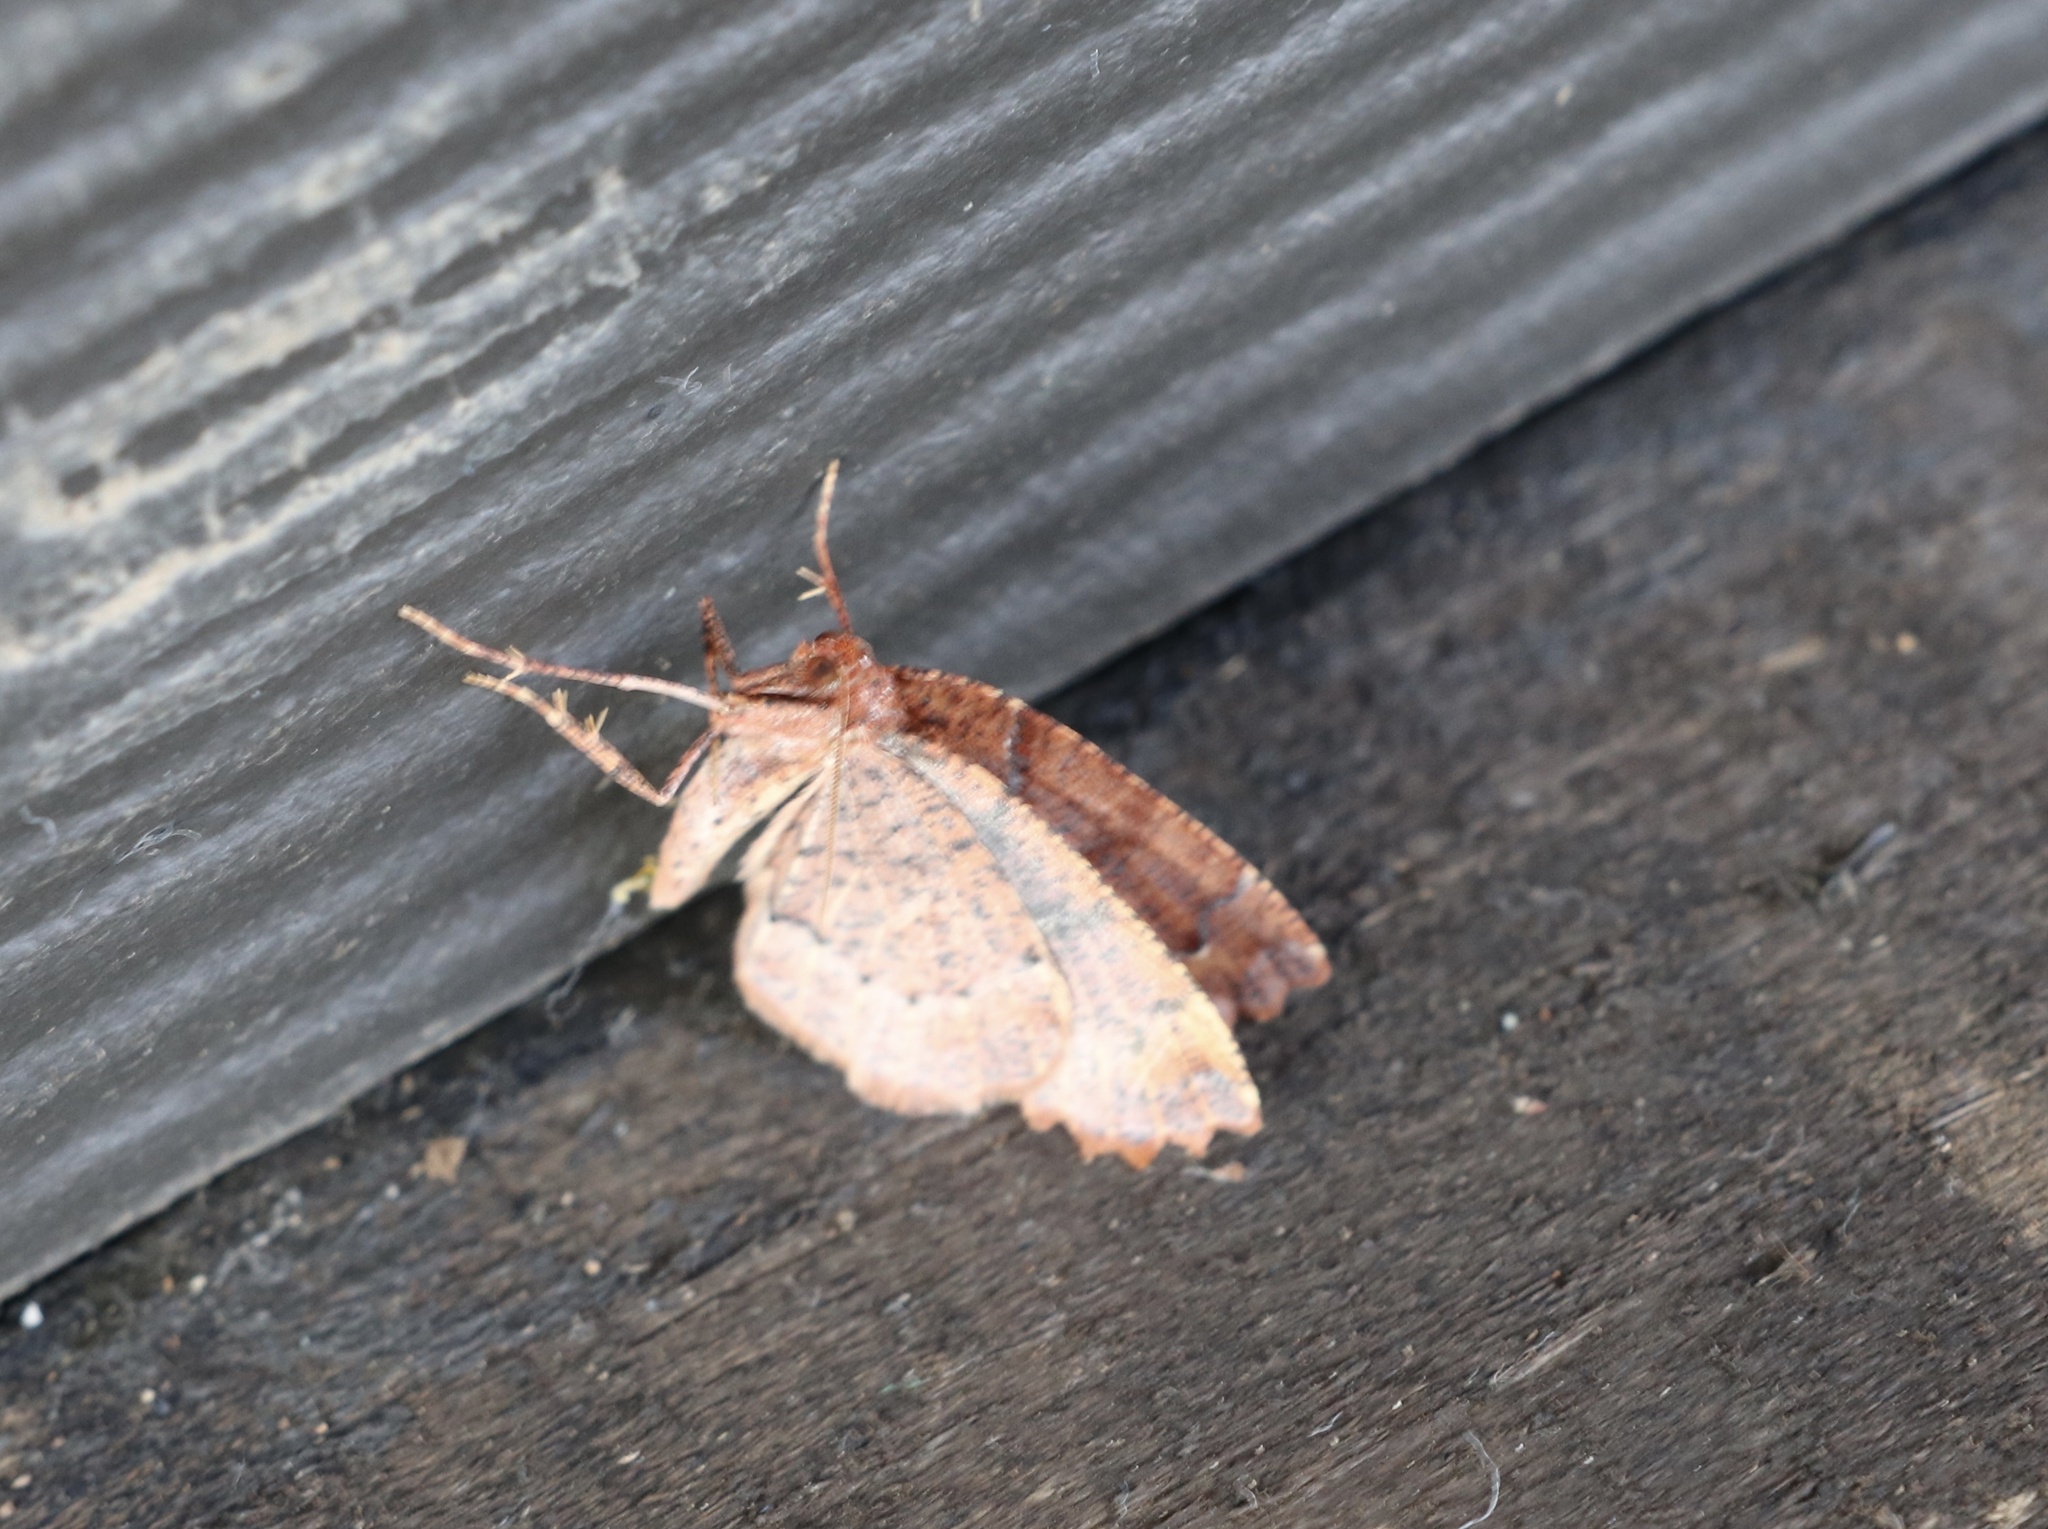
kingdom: Animalia
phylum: Arthropoda
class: Insecta
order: Lepidoptera
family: Geometridae
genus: Franciscoia
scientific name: Franciscoia
